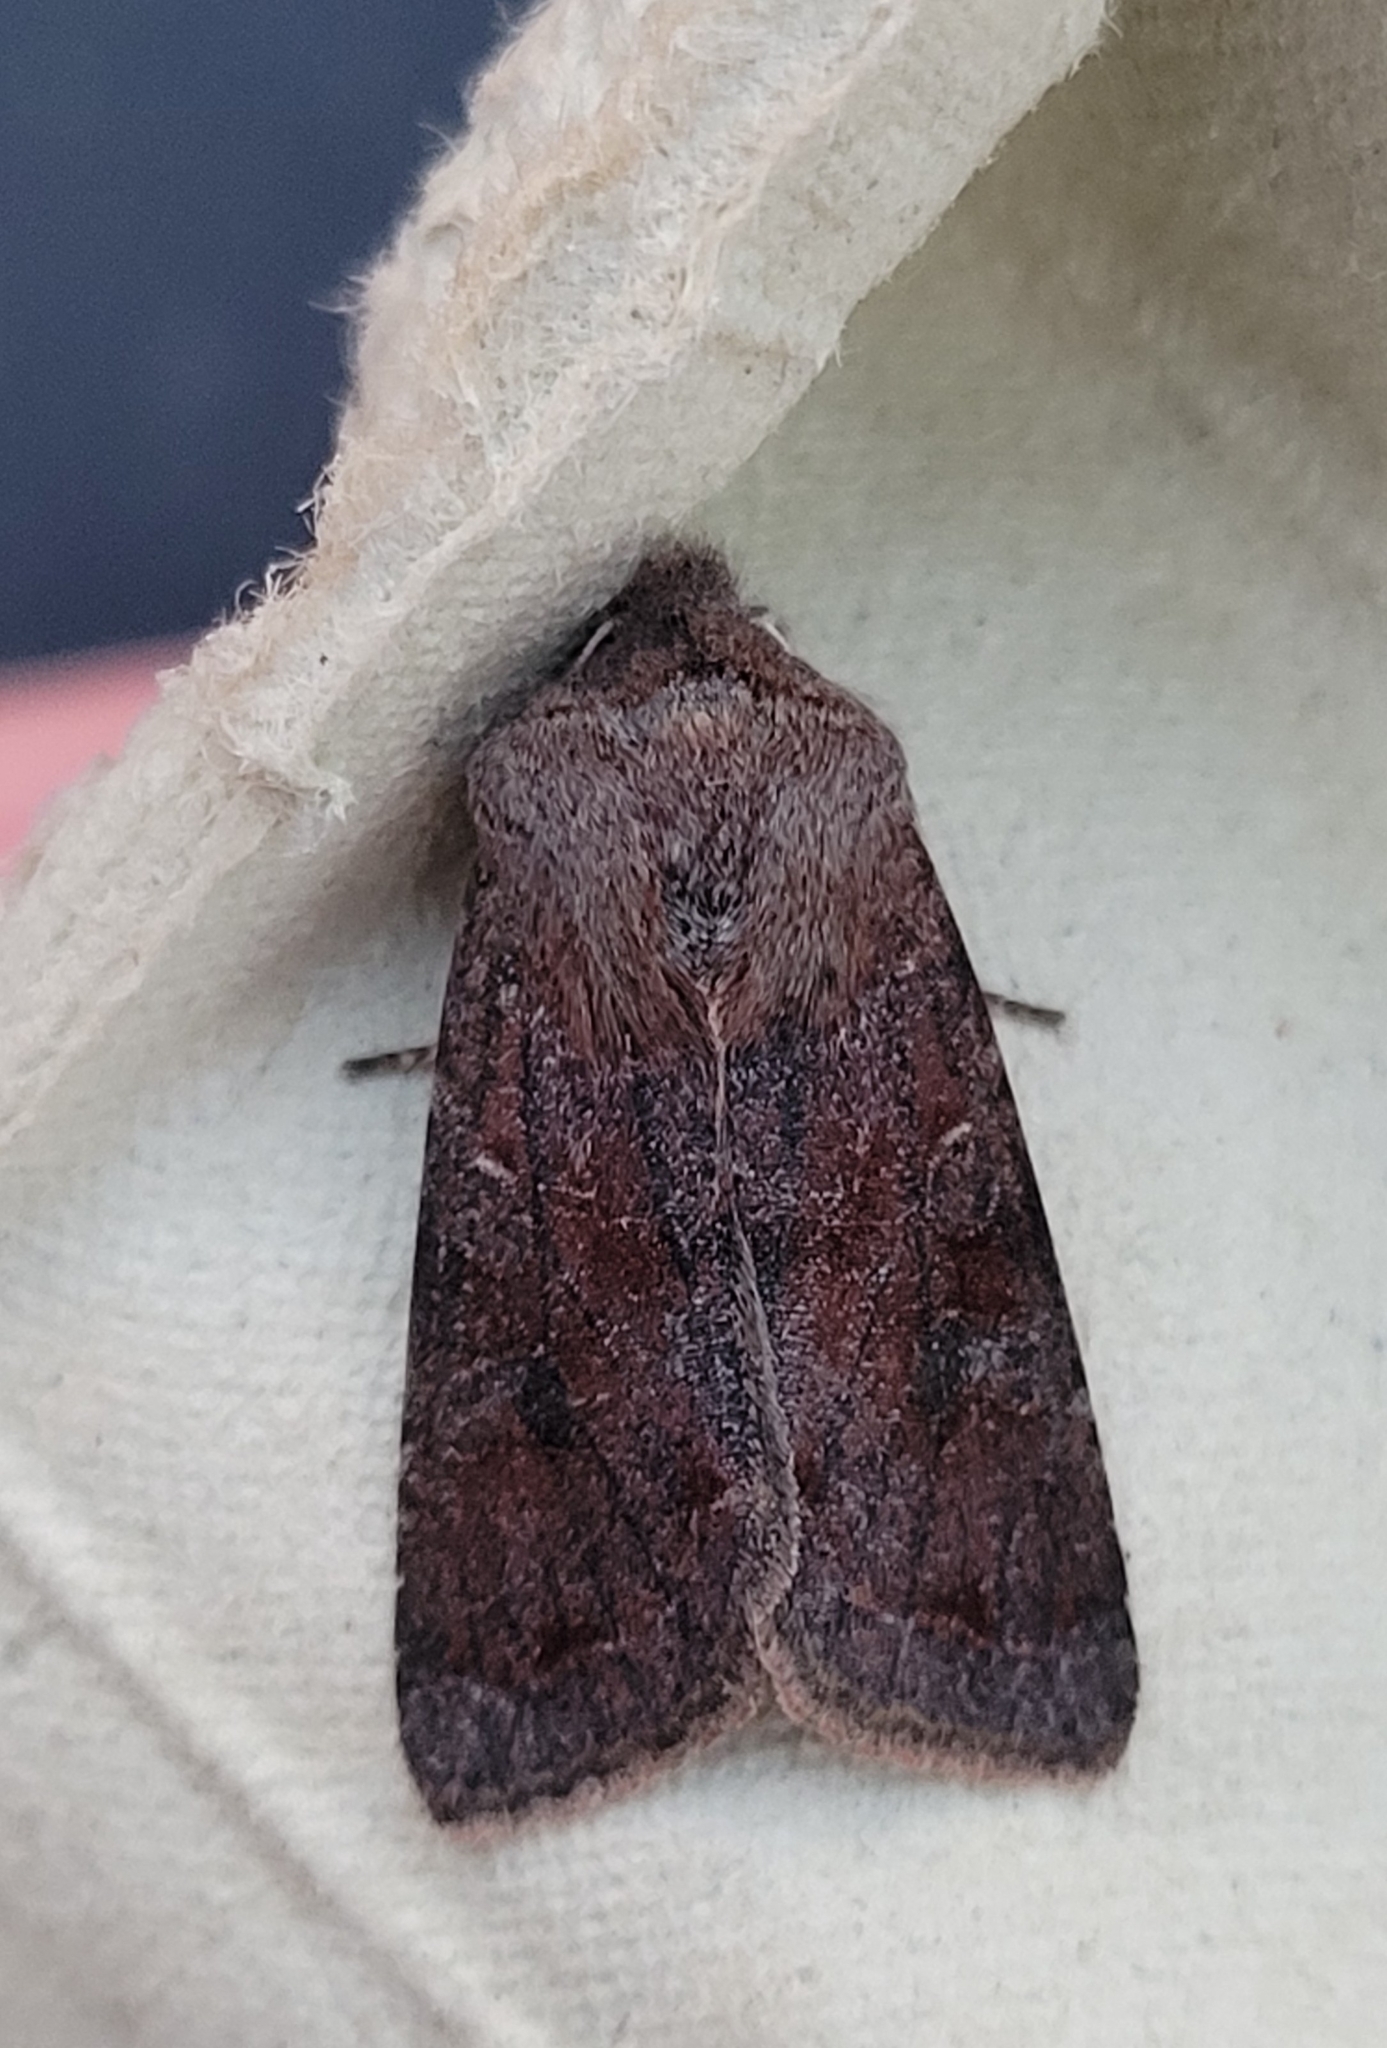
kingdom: Animalia
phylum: Arthropoda
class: Insecta
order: Lepidoptera
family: Noctuidae
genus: Orthosia
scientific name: Orthosia incerta
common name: Clouded drab
